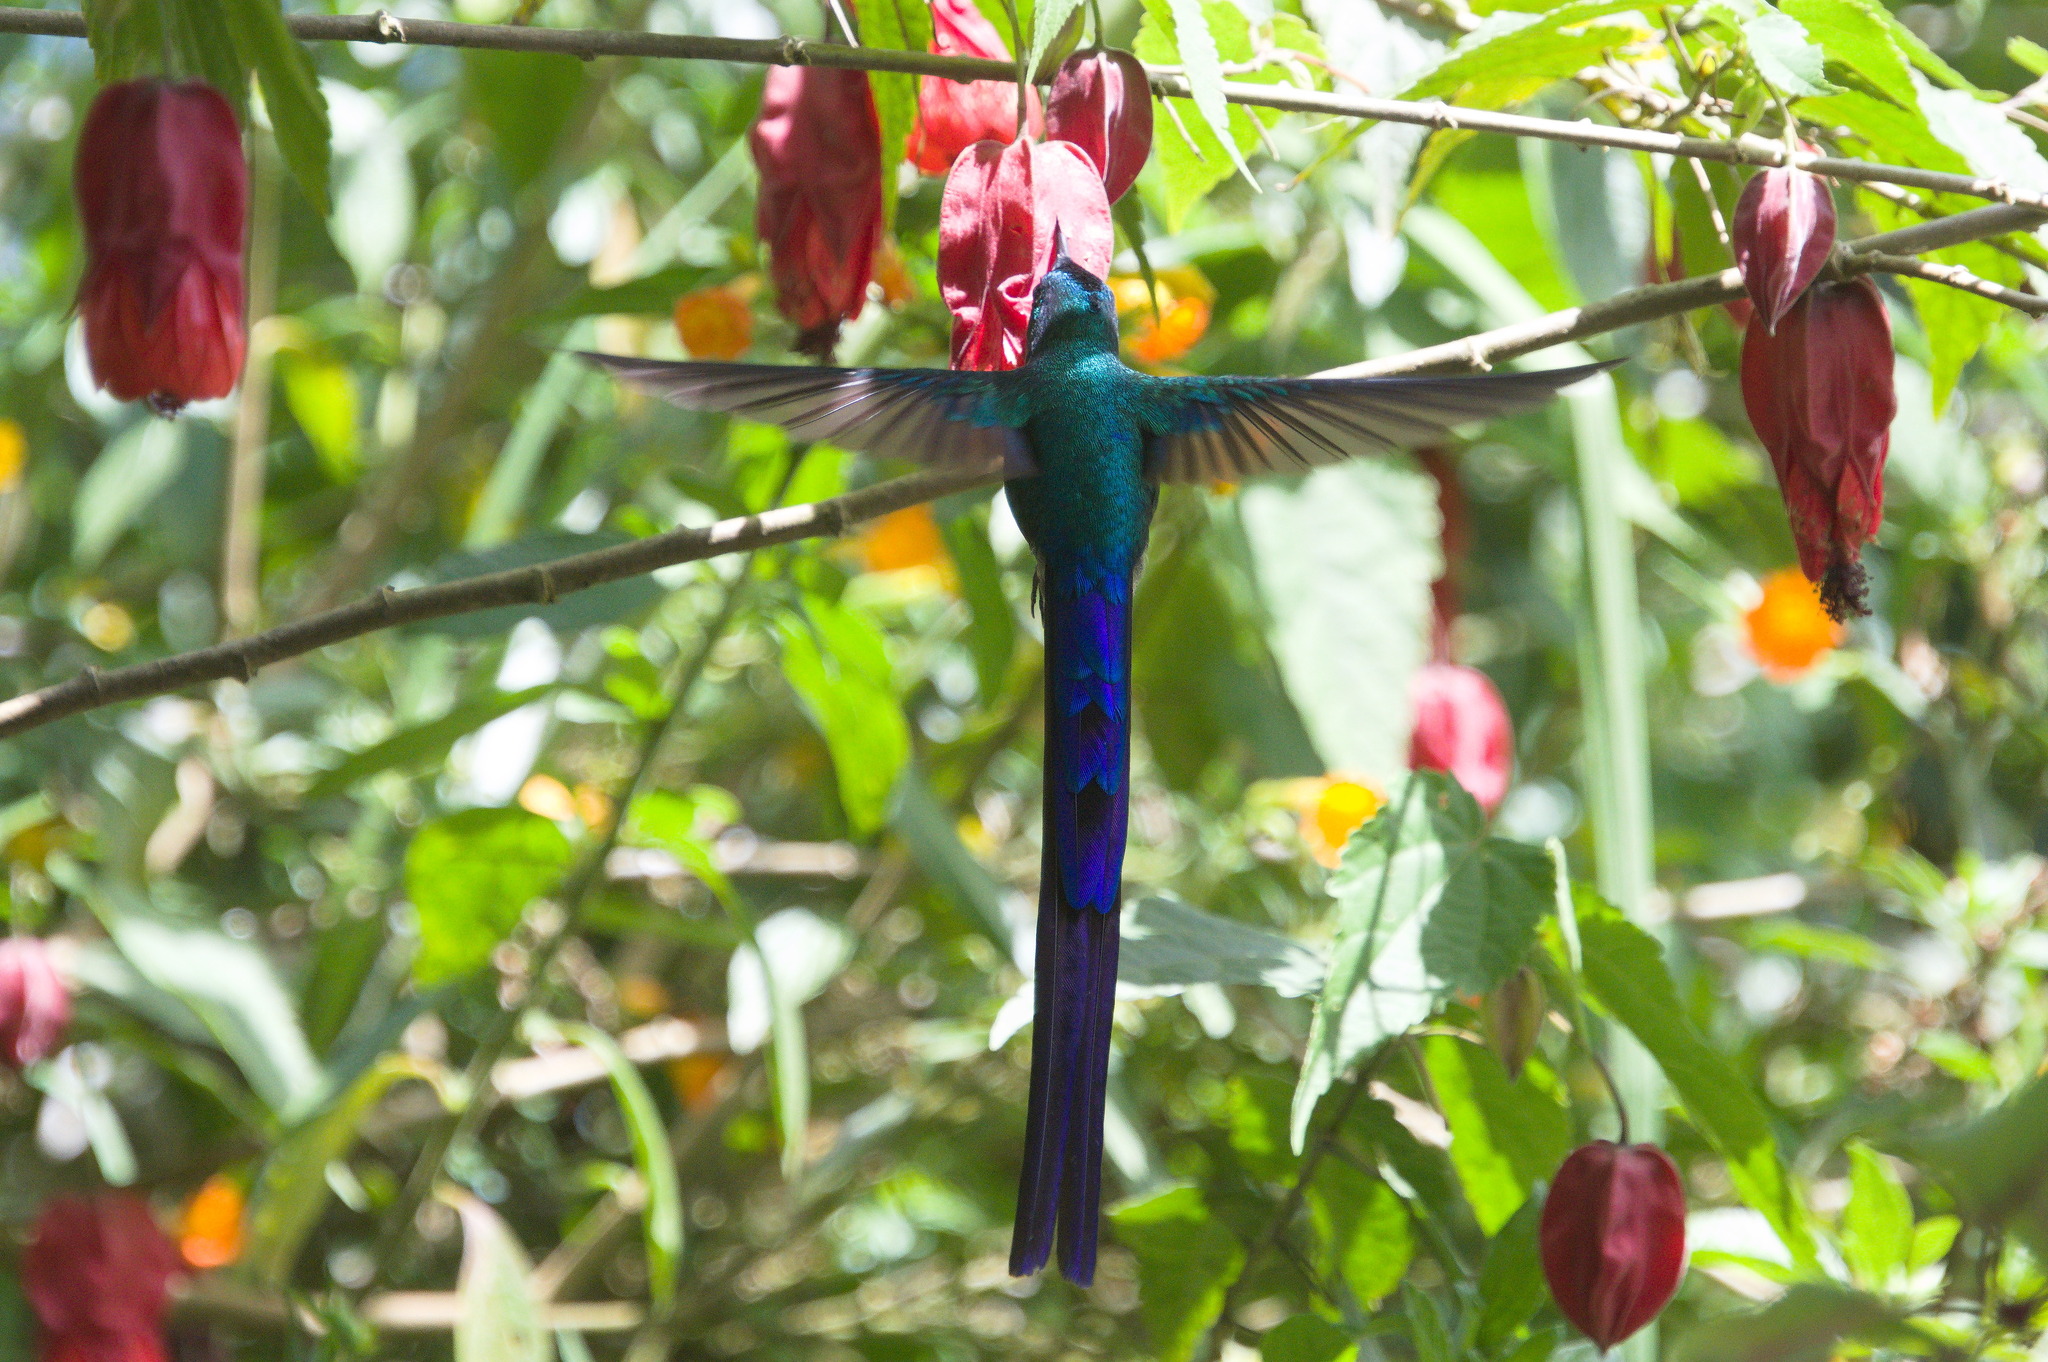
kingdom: Animalia
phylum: Chordata
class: Aves
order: Apodiformes
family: Trochilidae
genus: Aglaiocercus
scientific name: Aglaiocercus kingii
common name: Long-tailed sylph
